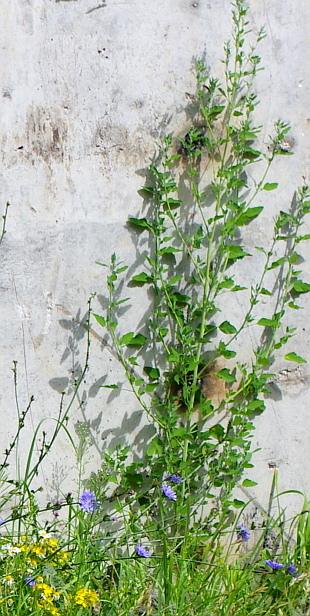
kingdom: Plantae
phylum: Tracheophyta
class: Magnoliopsida
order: Caryophyllales
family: Amaranthaceae
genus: Chenopodium
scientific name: Chenopodium album
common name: Fat-hen
